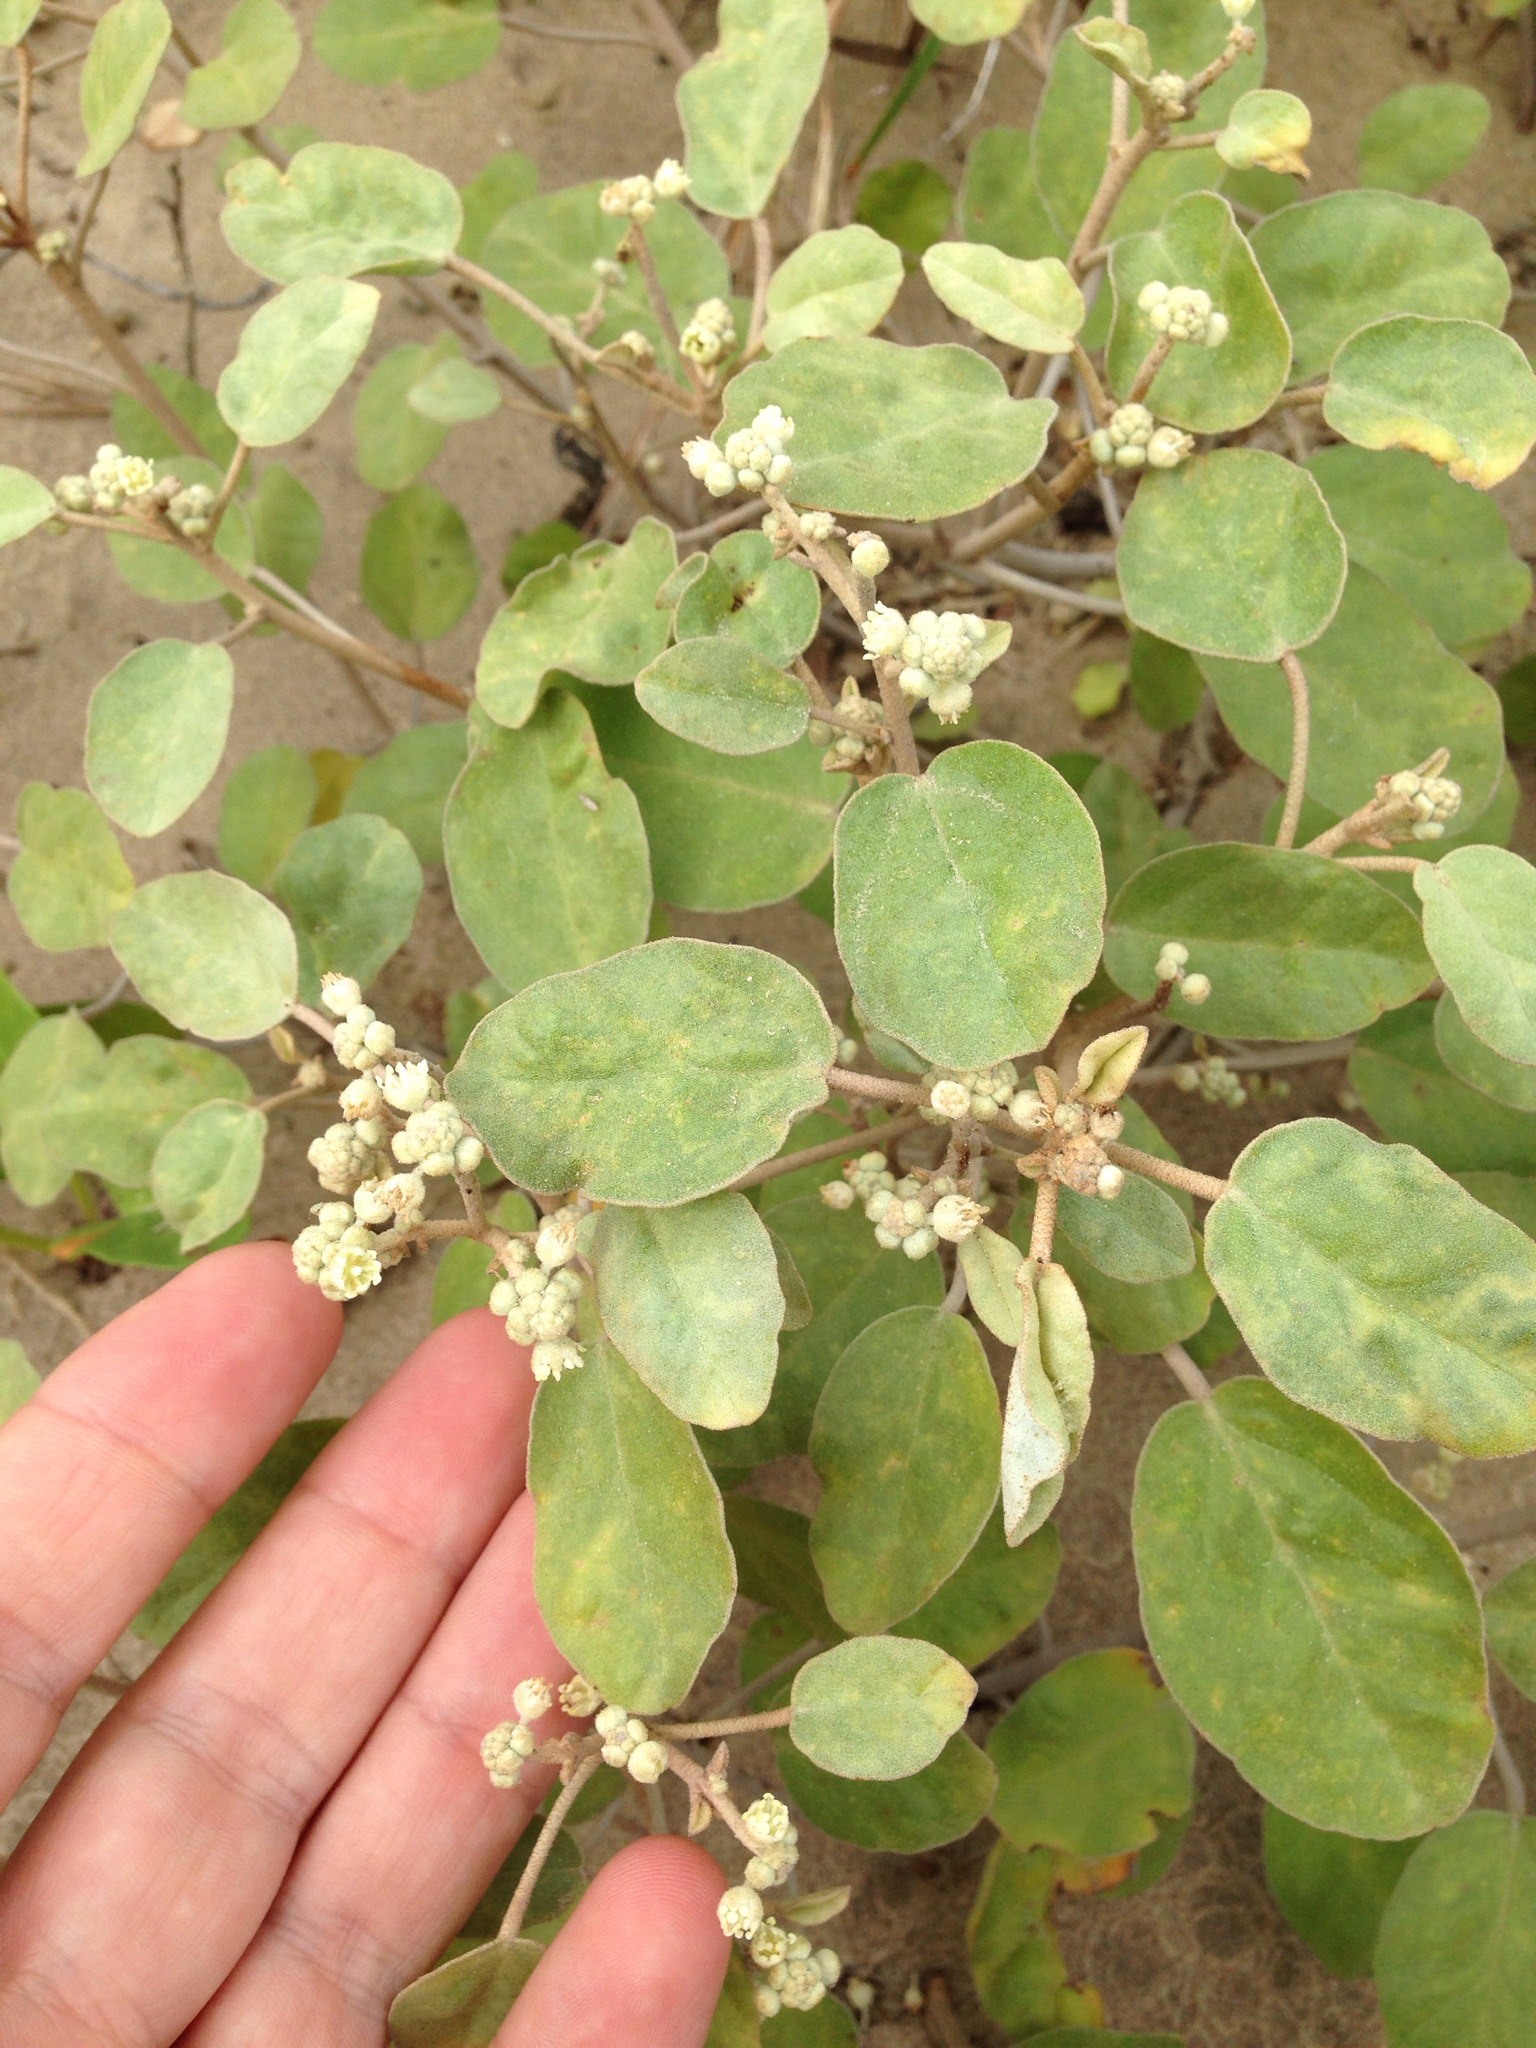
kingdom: Plantae
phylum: Tracheophyta
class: Magnoliopsida
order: Malpighiales
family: Euphorbiaceae
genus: Croton
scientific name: Croton punctatus
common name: Beach-tea
